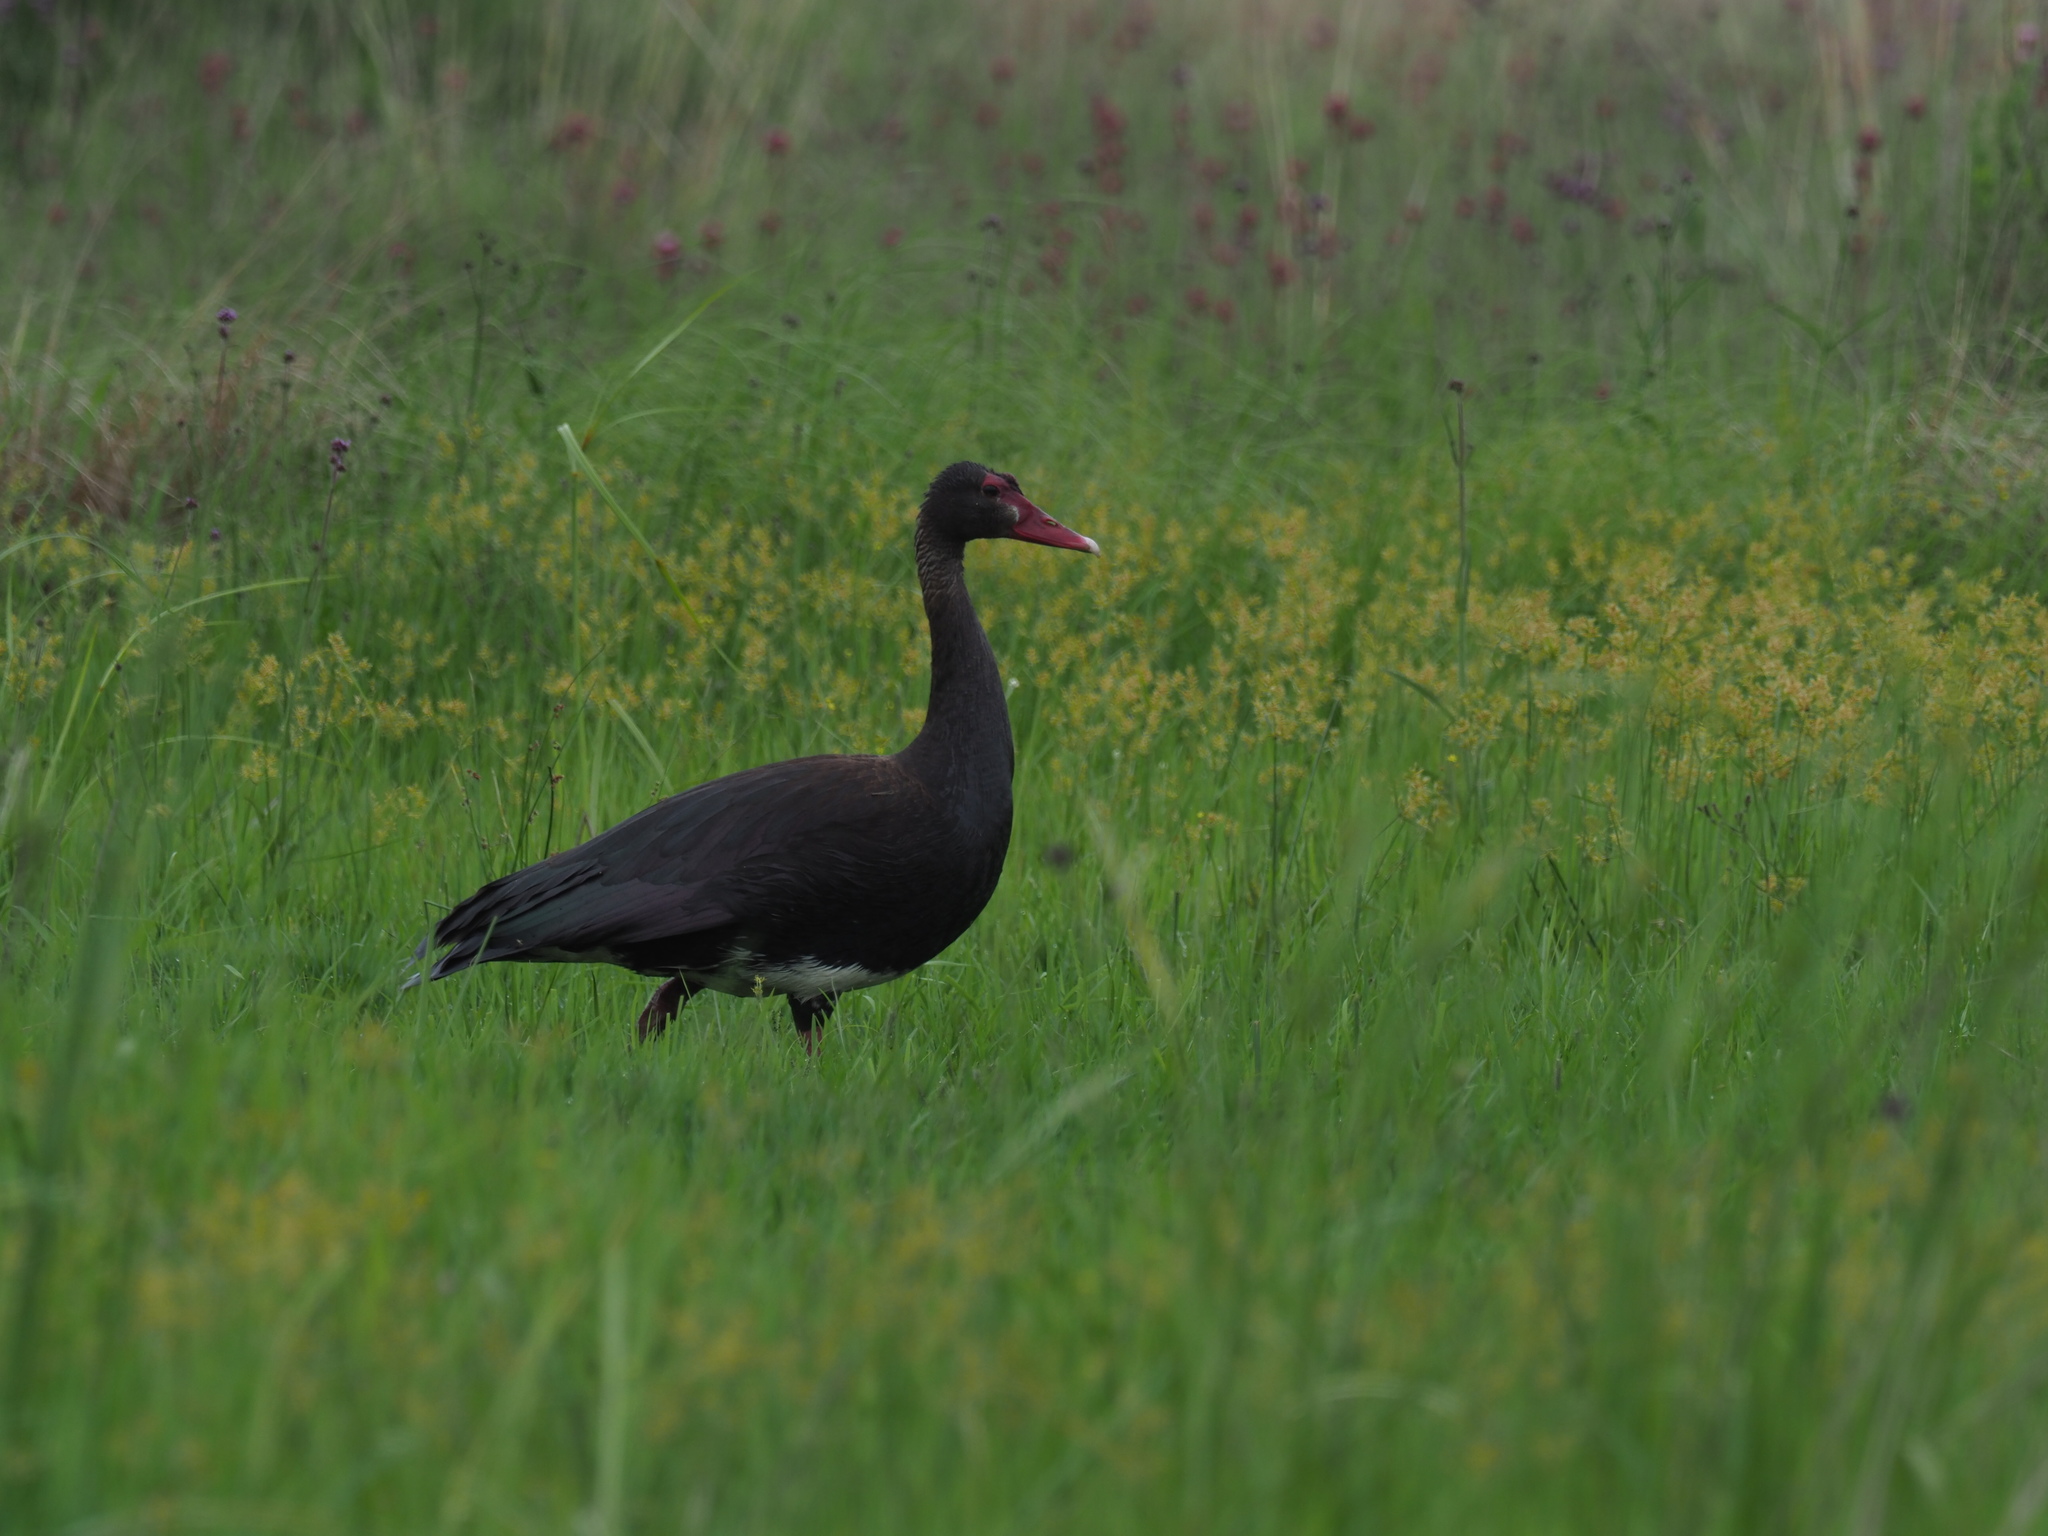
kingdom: Animalia
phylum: Chordata
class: Aves
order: Anseriformes
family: Anatidae
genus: Plectropterus
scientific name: Plectropterus gambensis
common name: Spur-winged goose
